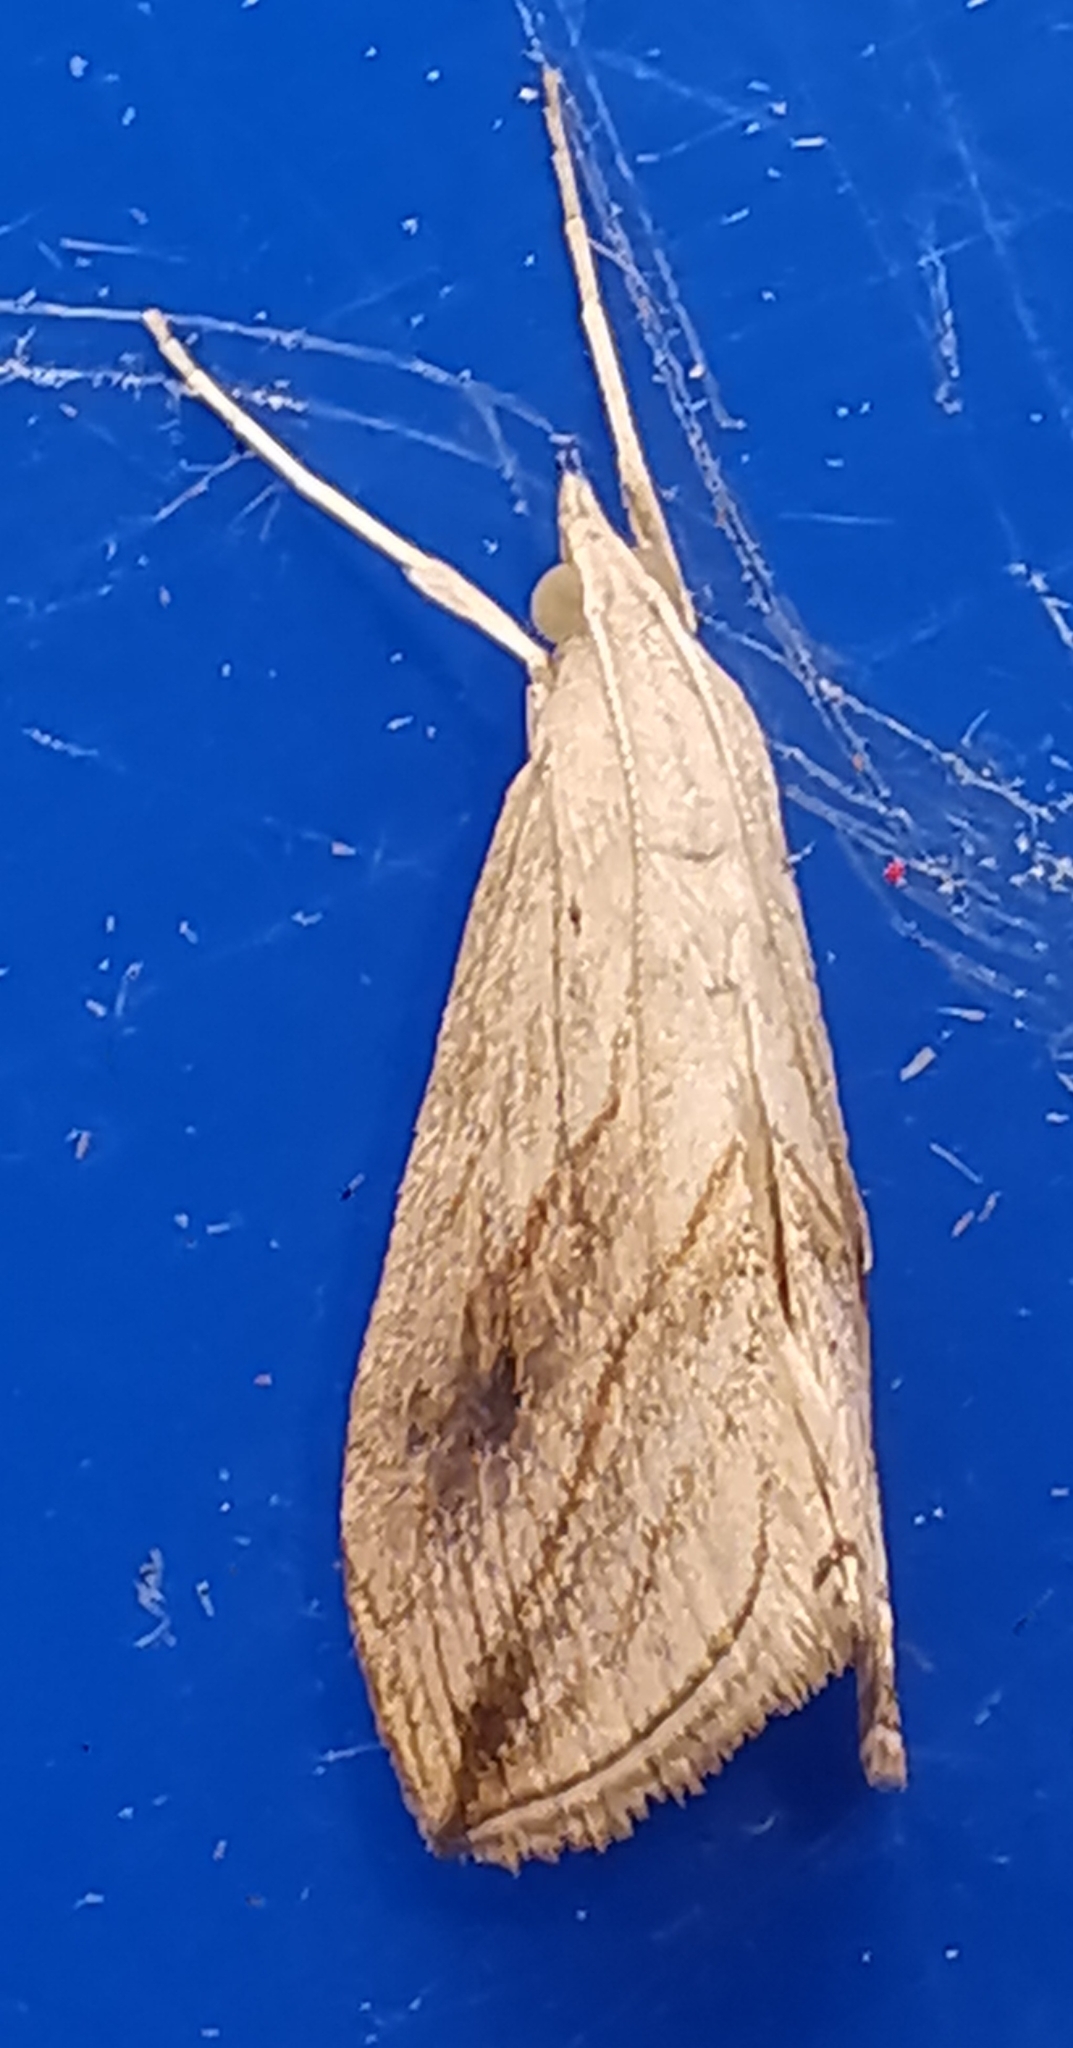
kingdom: Animalia
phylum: Arthropoda
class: Insecta
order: Lepidoptera
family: Crambidae
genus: Evergestis
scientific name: Evergestis forficalis
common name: Garden pebble
